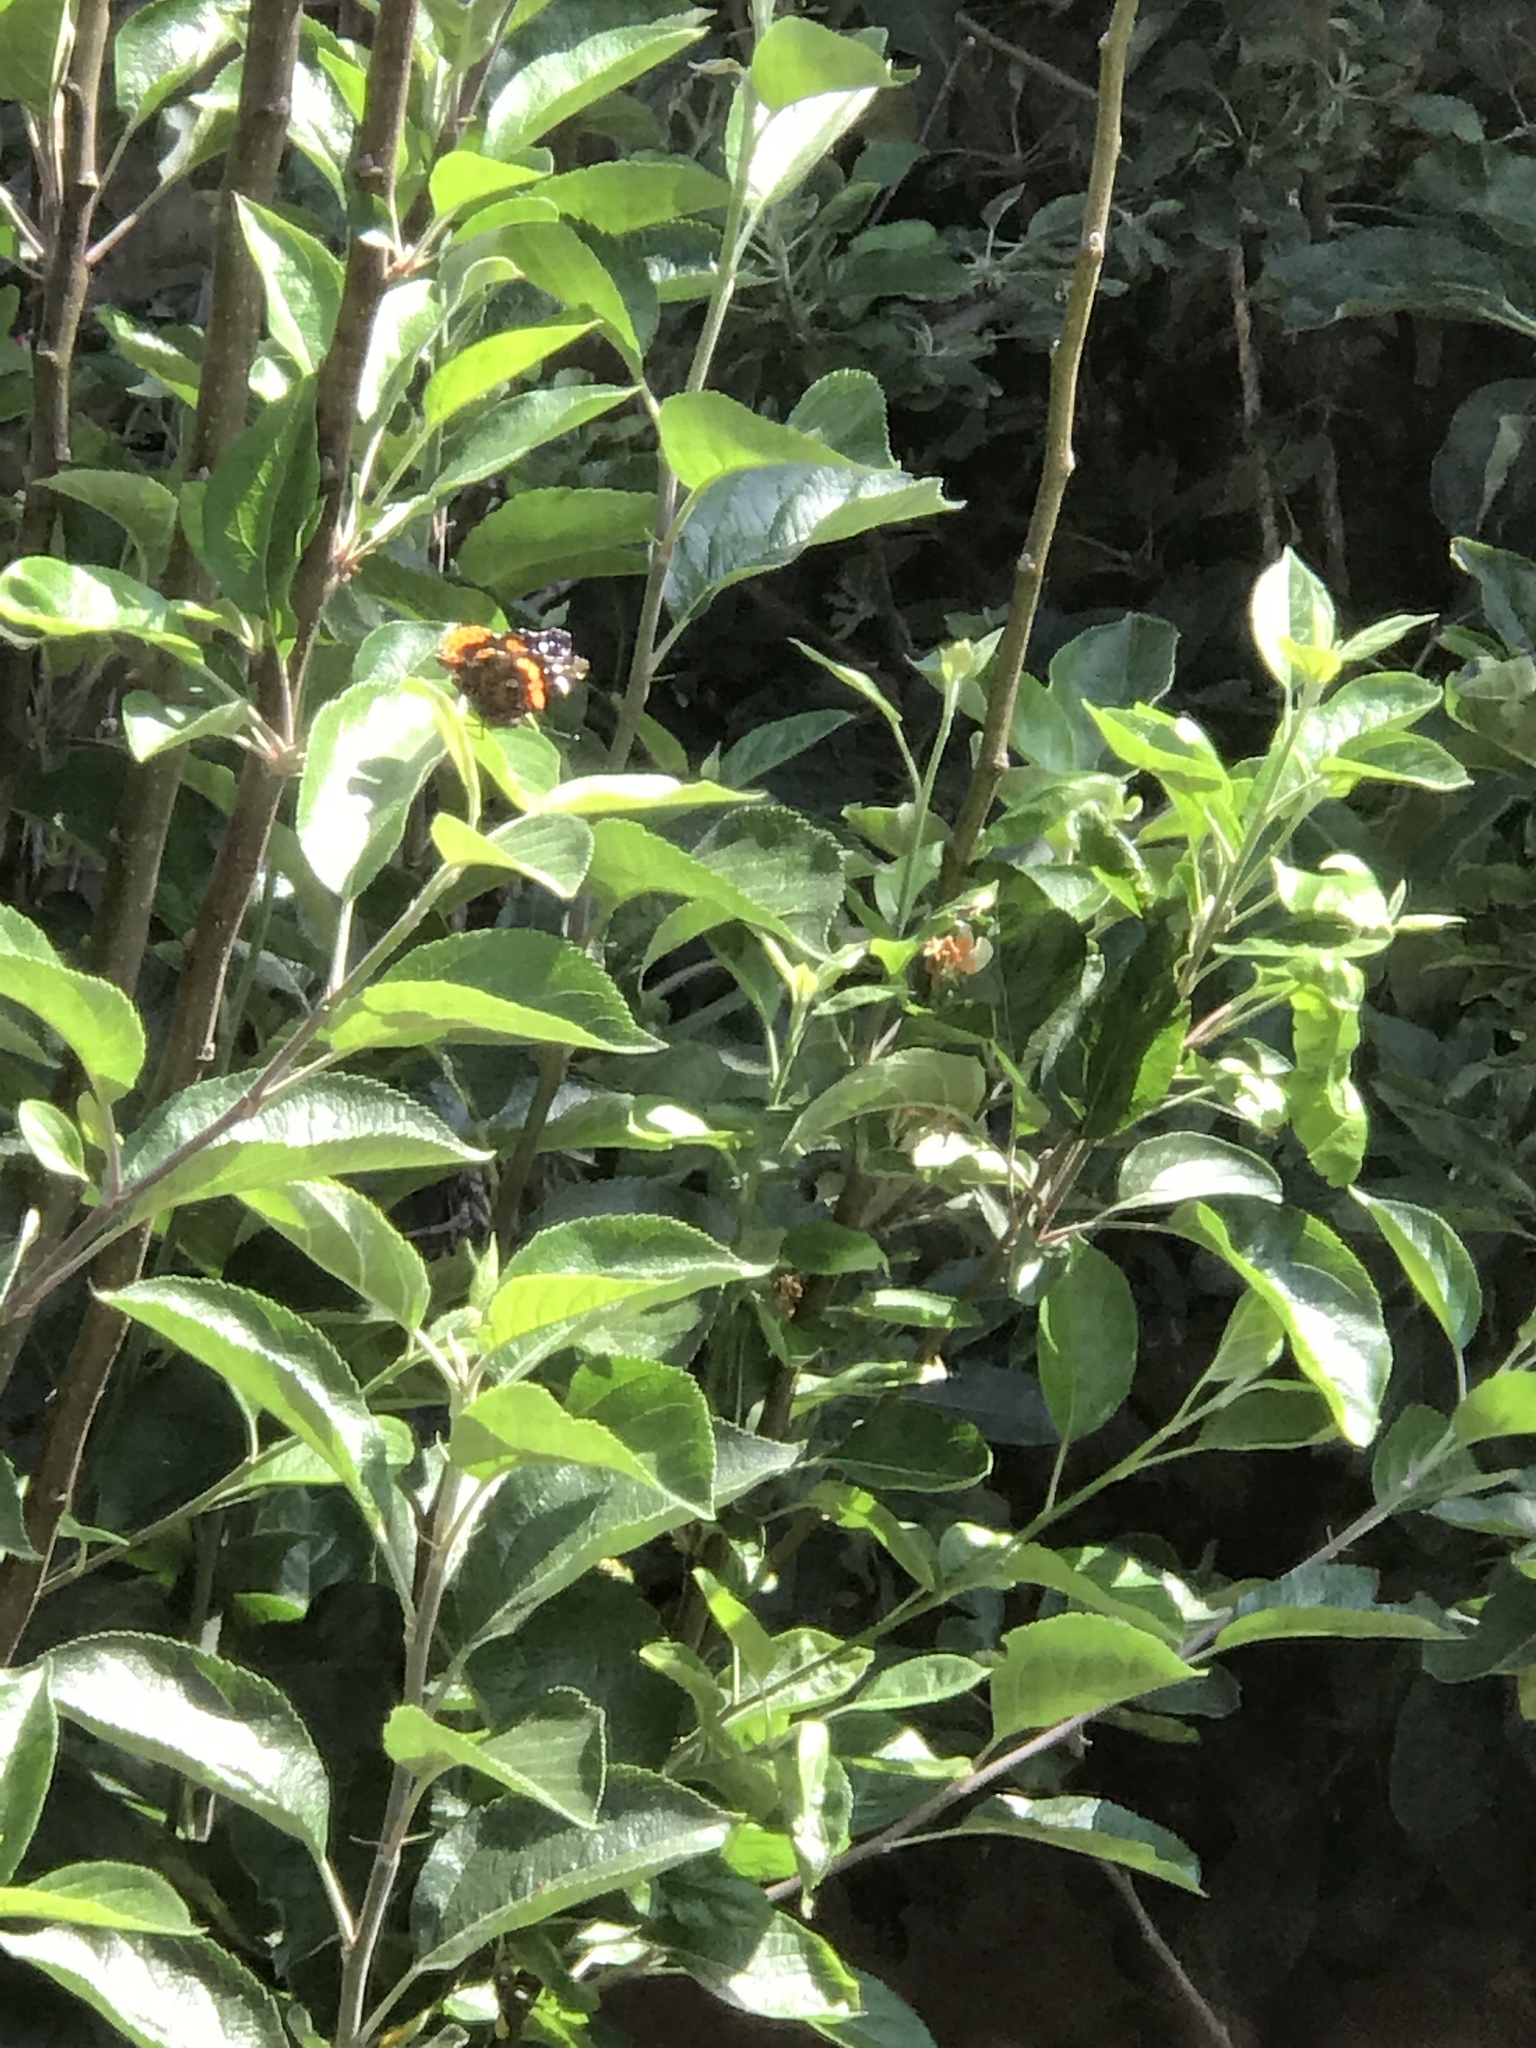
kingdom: Animalia
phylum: Arthropoda
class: Insecta
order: Lepidoptera
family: Nymphalidae
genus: Vanessa
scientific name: Vanessa atalanta
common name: Red admiral
